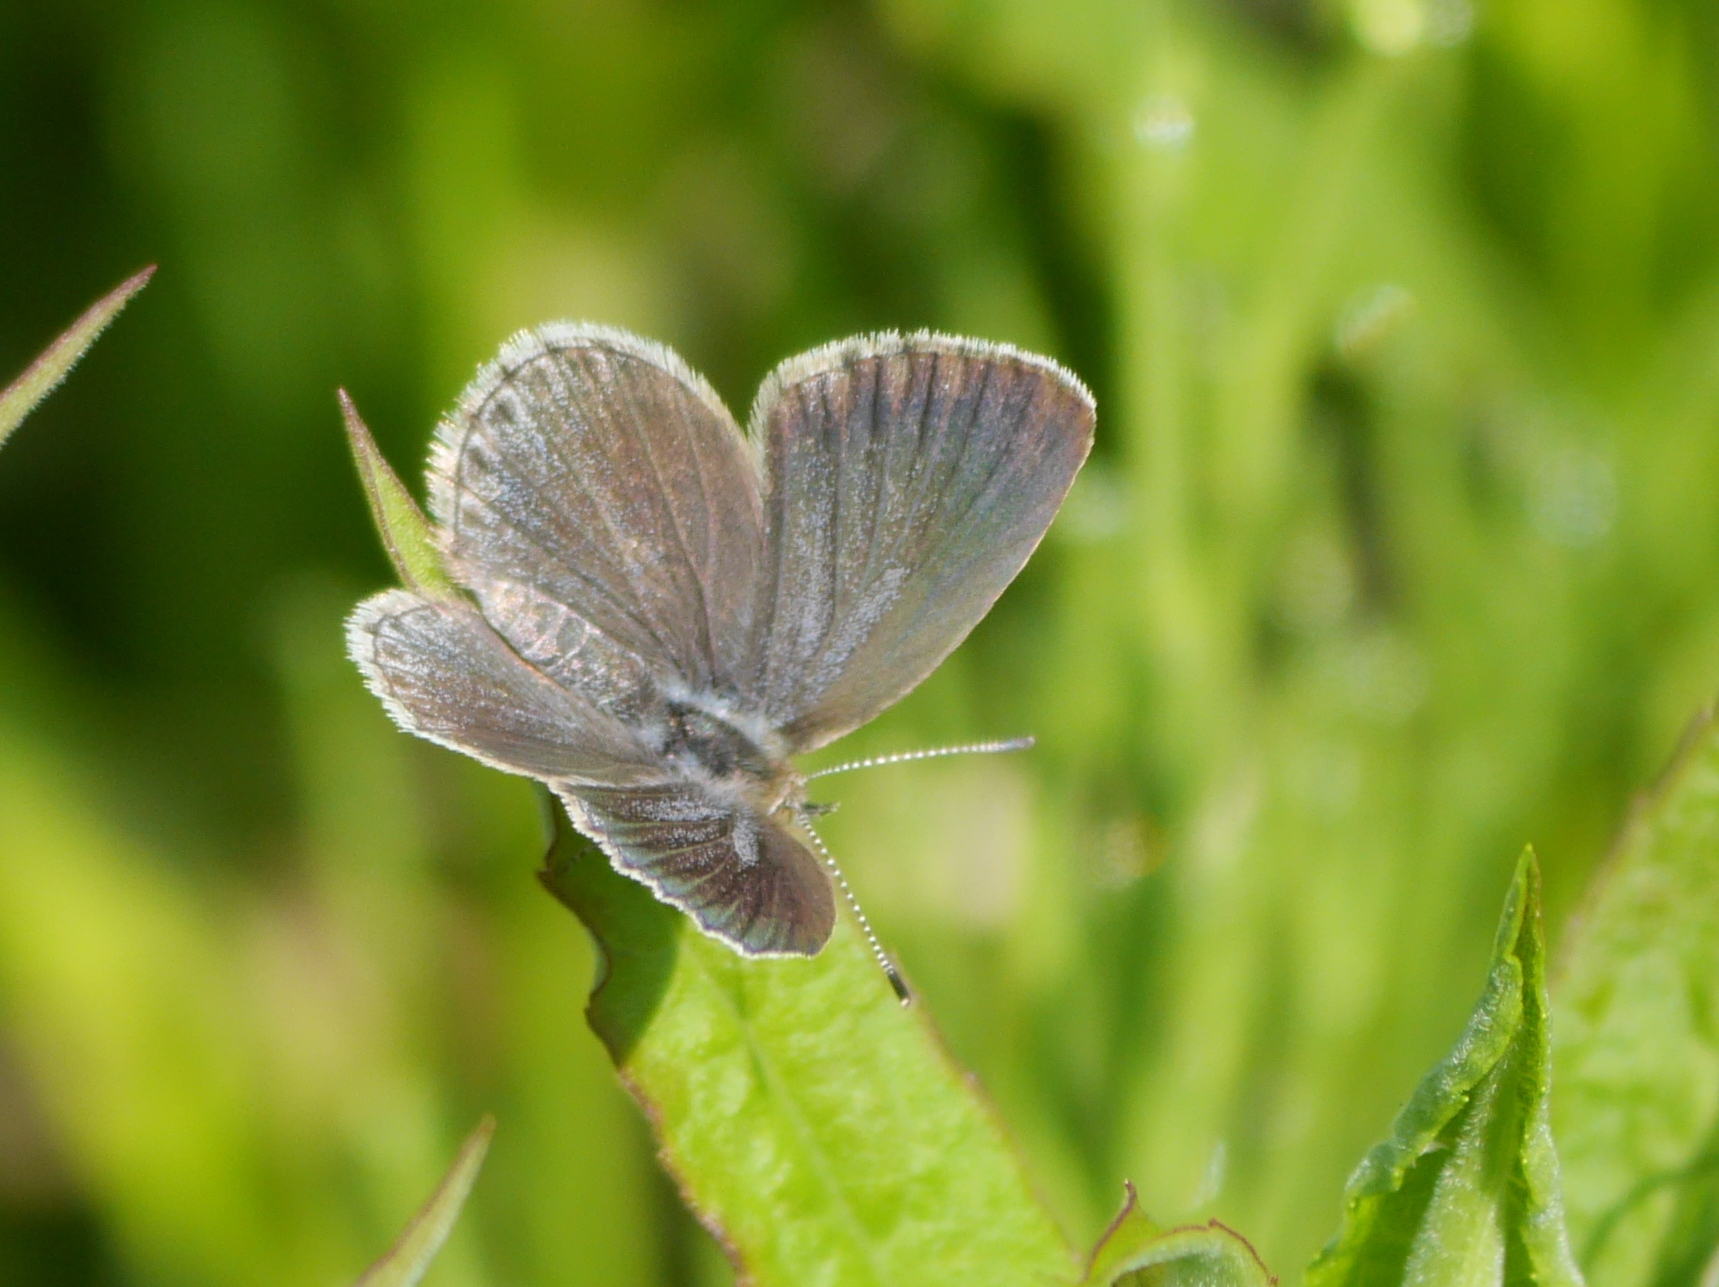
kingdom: Animalia
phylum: Arthropoda
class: Insecta
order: Lepidoptera
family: Lycaenidae
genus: Pseudozizeeria
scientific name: Pseudozizeeria maha
